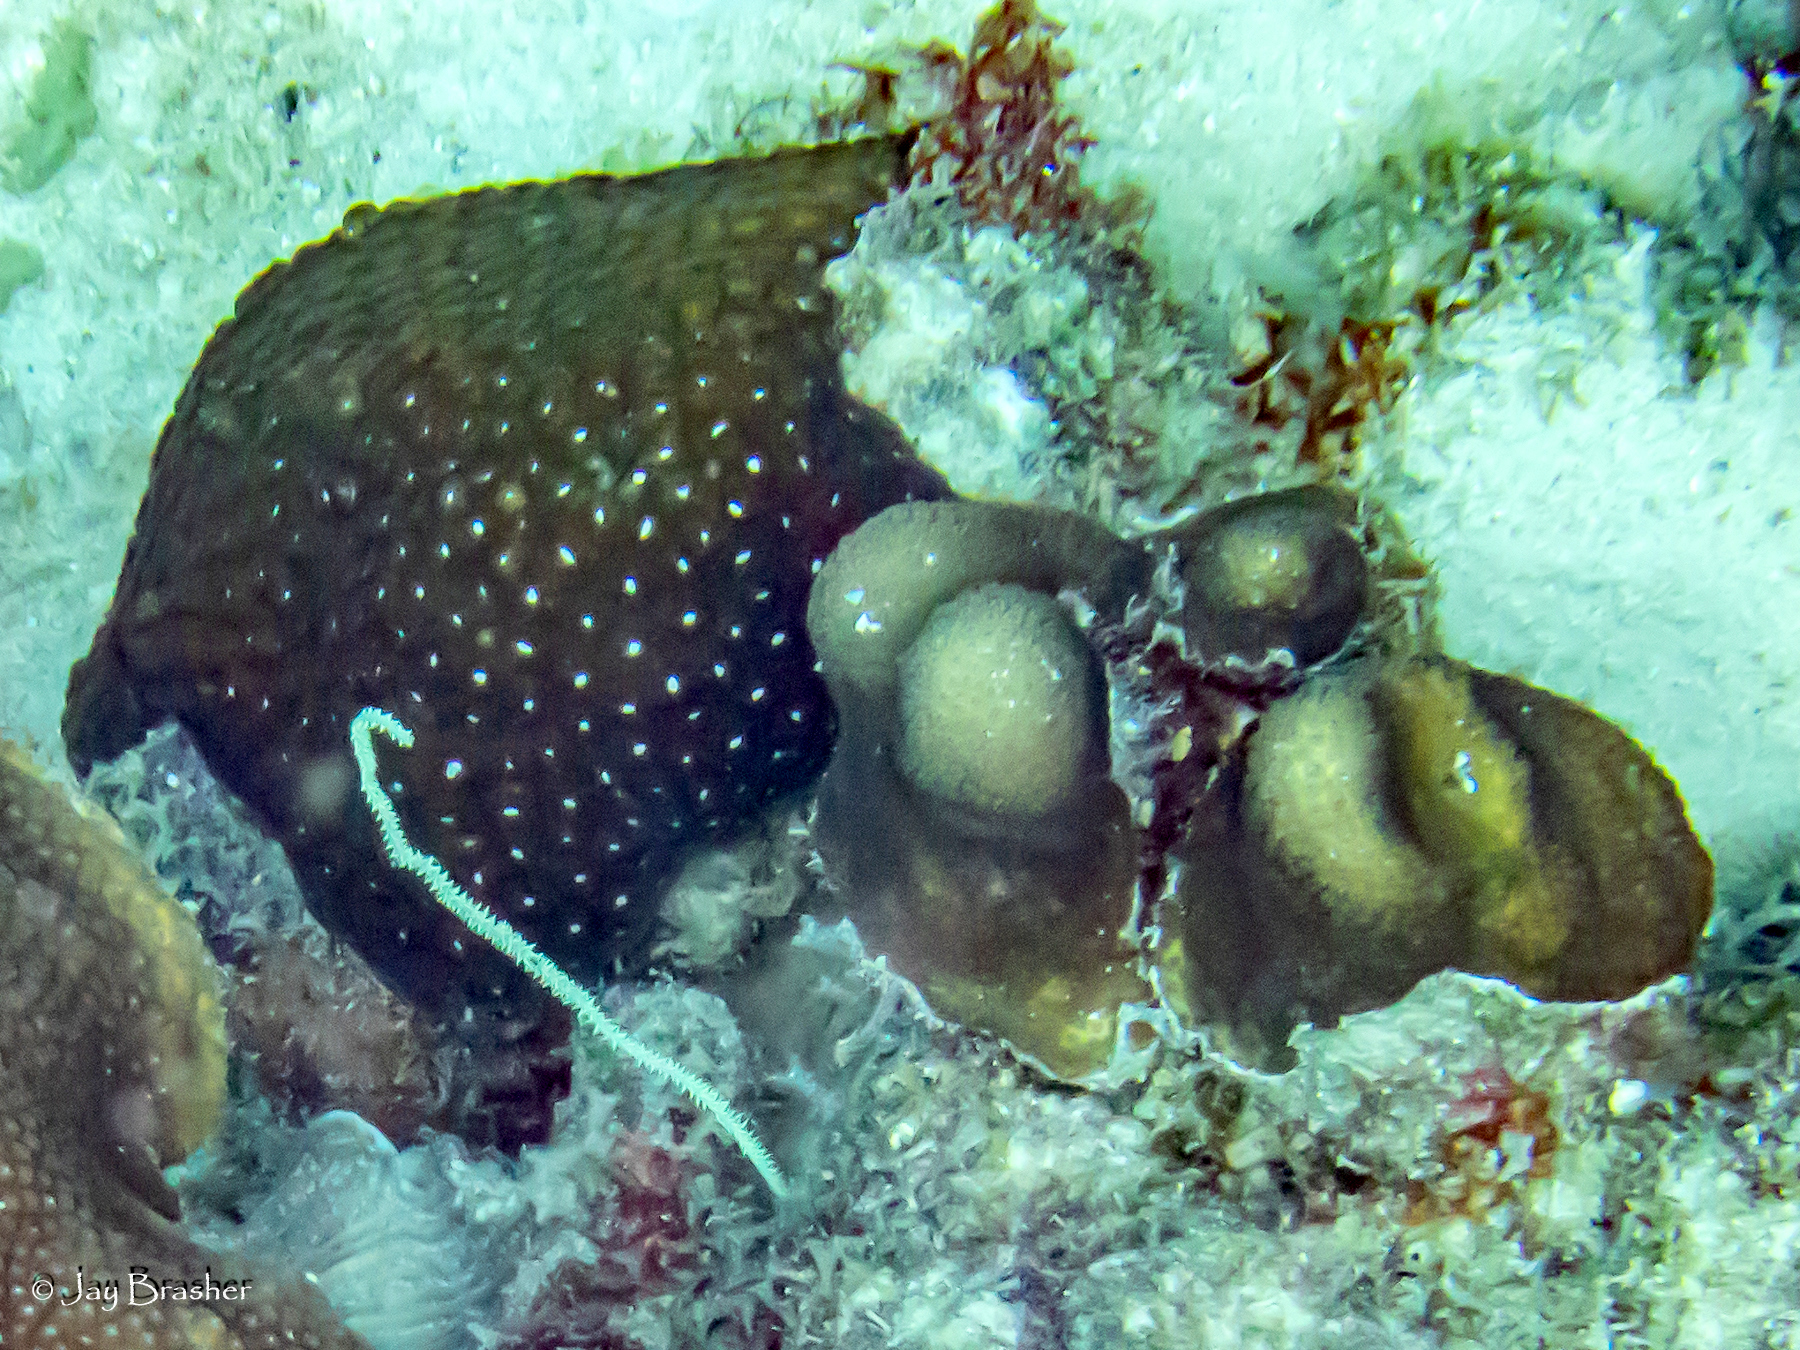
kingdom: Animalia
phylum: Cnidaria
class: Anthozoa
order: Scleractinia
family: Montastraeidae
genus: Montastraea
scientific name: Montastraea cavernosa
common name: Great star coral
